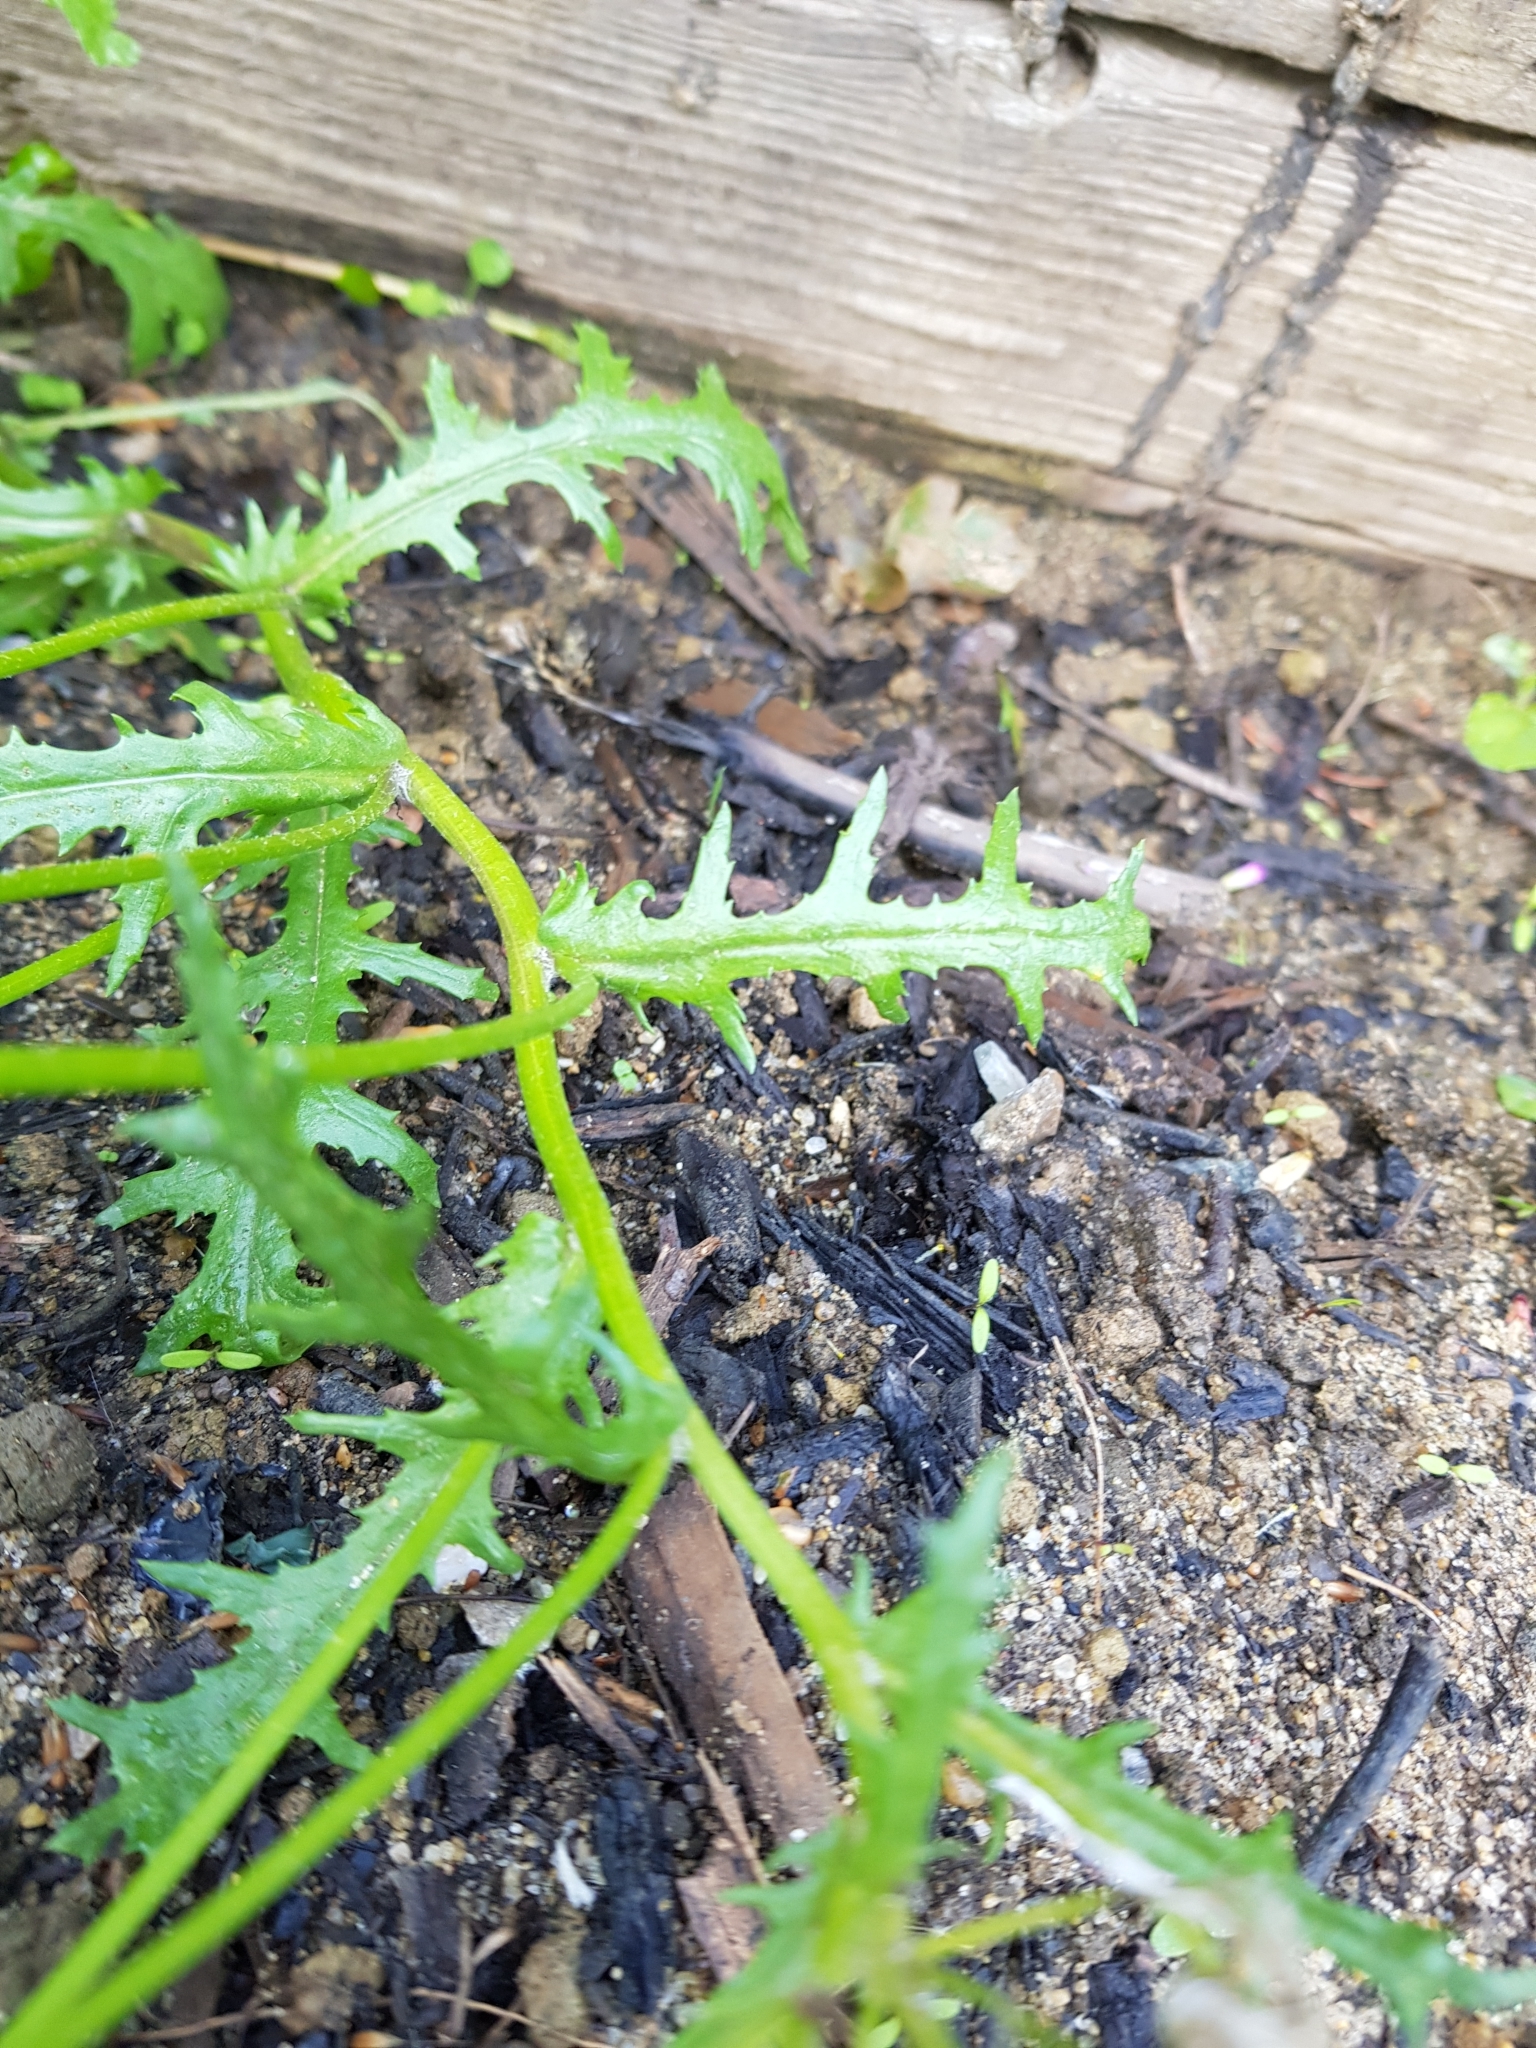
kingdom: Plantae
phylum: Tracheophyta
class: Magnoliopsida
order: Asterales
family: Asteraceae
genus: Senecio
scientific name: Senecio vulgaris
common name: Old-man-in-the-spring
